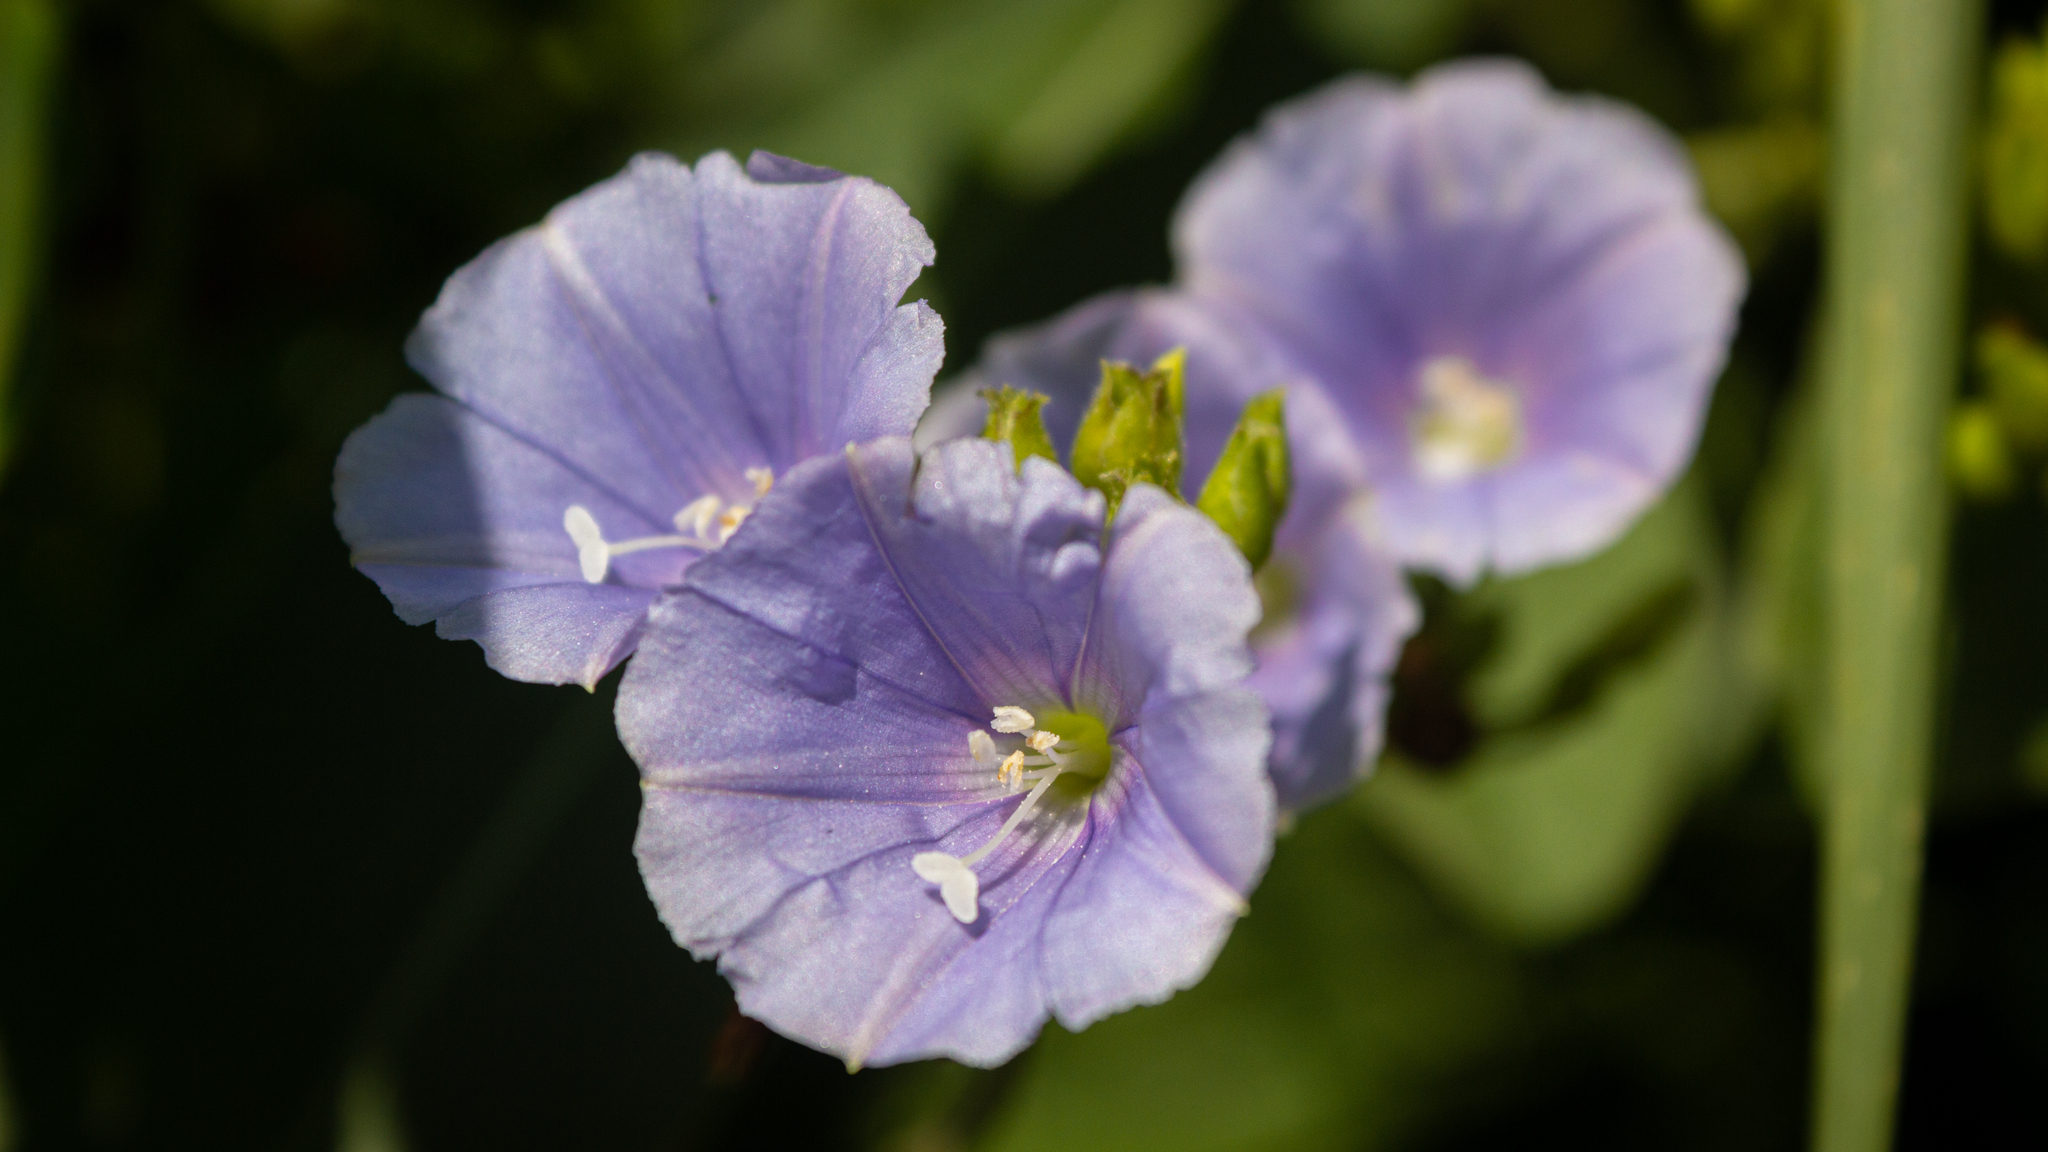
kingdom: Plantae
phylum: Tracheophyta
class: Magnoliopsida
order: Solanales
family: Convolvulaceae
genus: Jacquemontia
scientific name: Jacquemontia velutina
